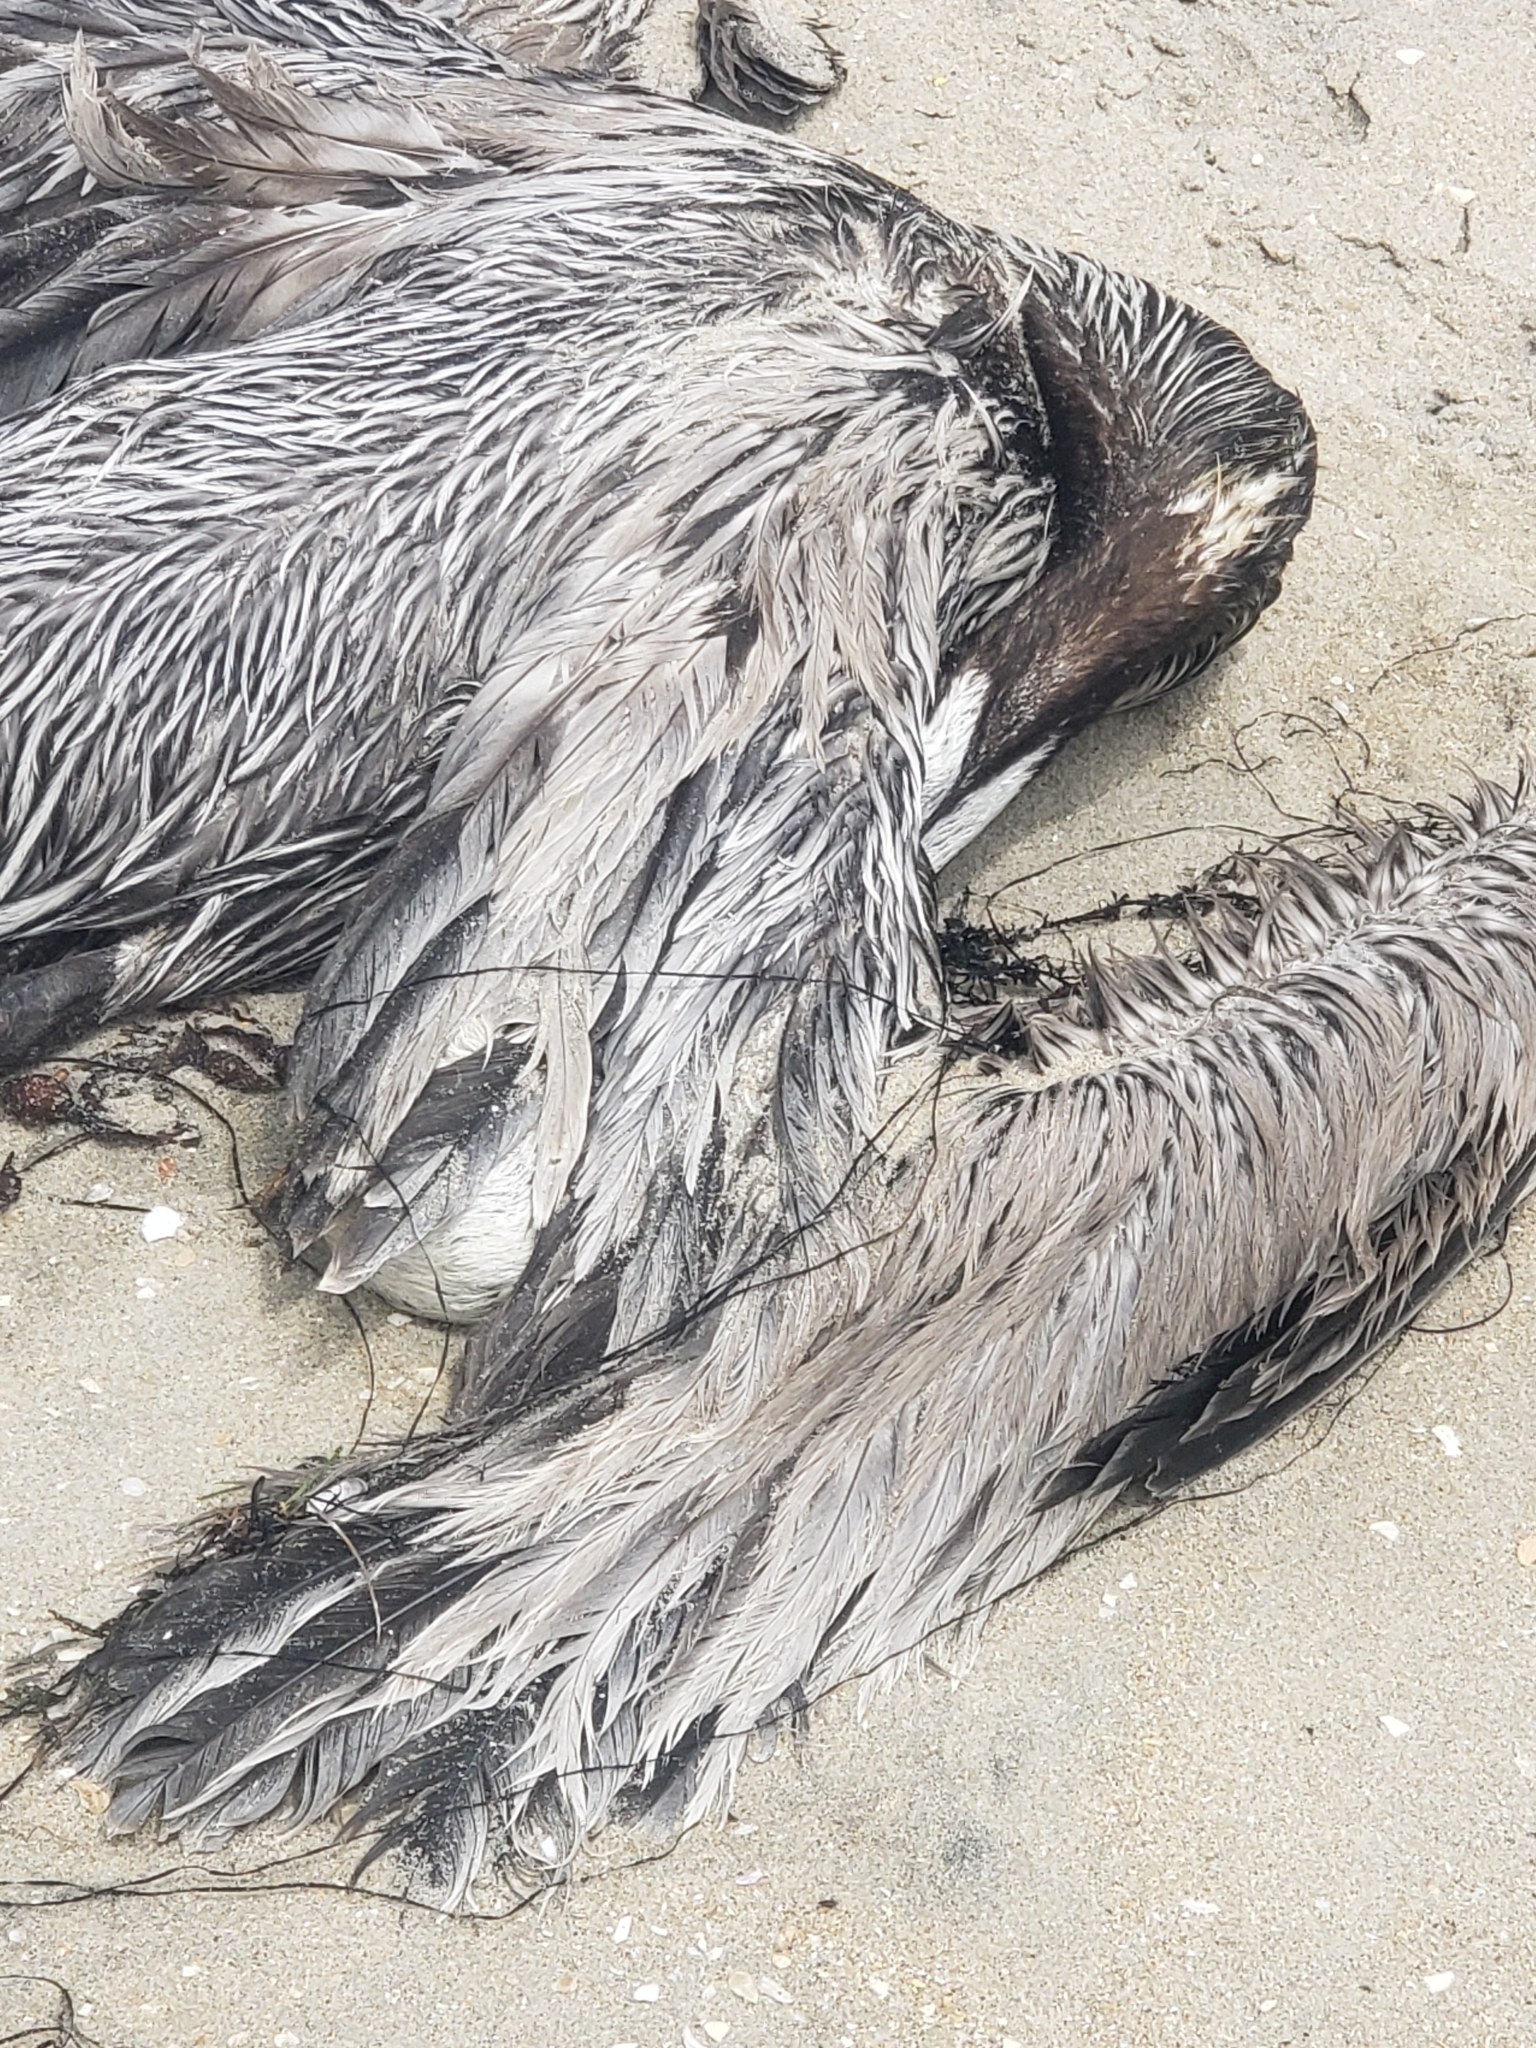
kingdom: Animalia
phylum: Chordata
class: Aves
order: Pelecaniformes
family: Pelecanidae
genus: Pelecanus
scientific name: Pelecanus occidentalis
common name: Brown pelican
